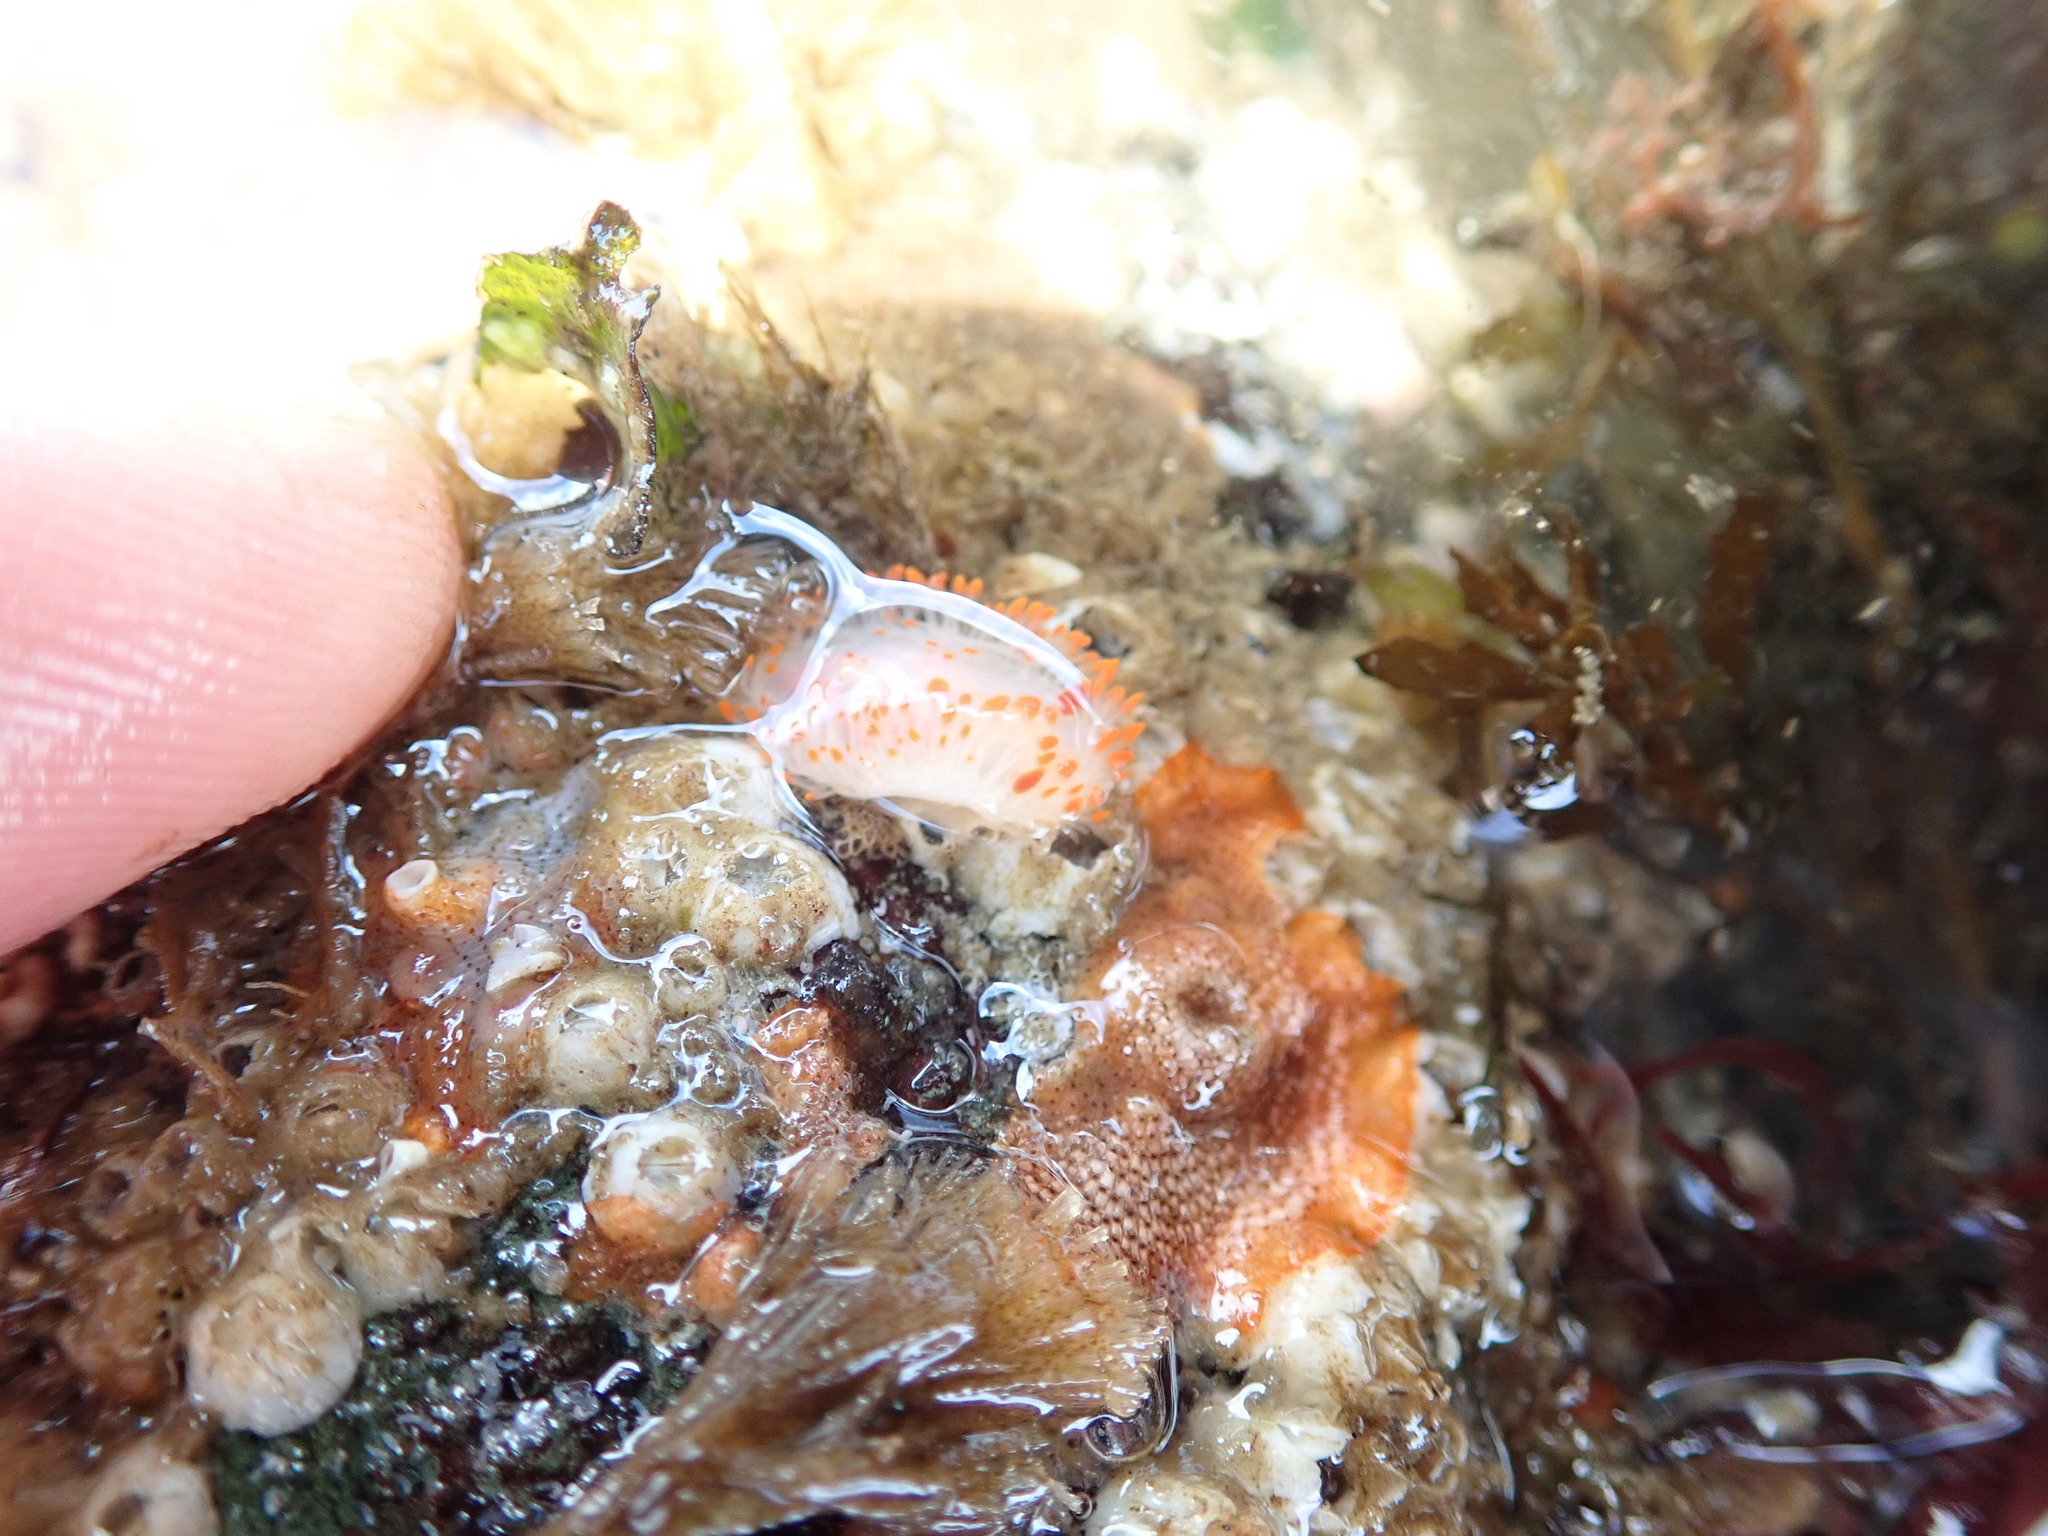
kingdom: Animalia
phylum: Mollusca
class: Gastropoda
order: Nudibranchia
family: Polyceridae
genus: Limacia
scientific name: Limacia cockerelli
